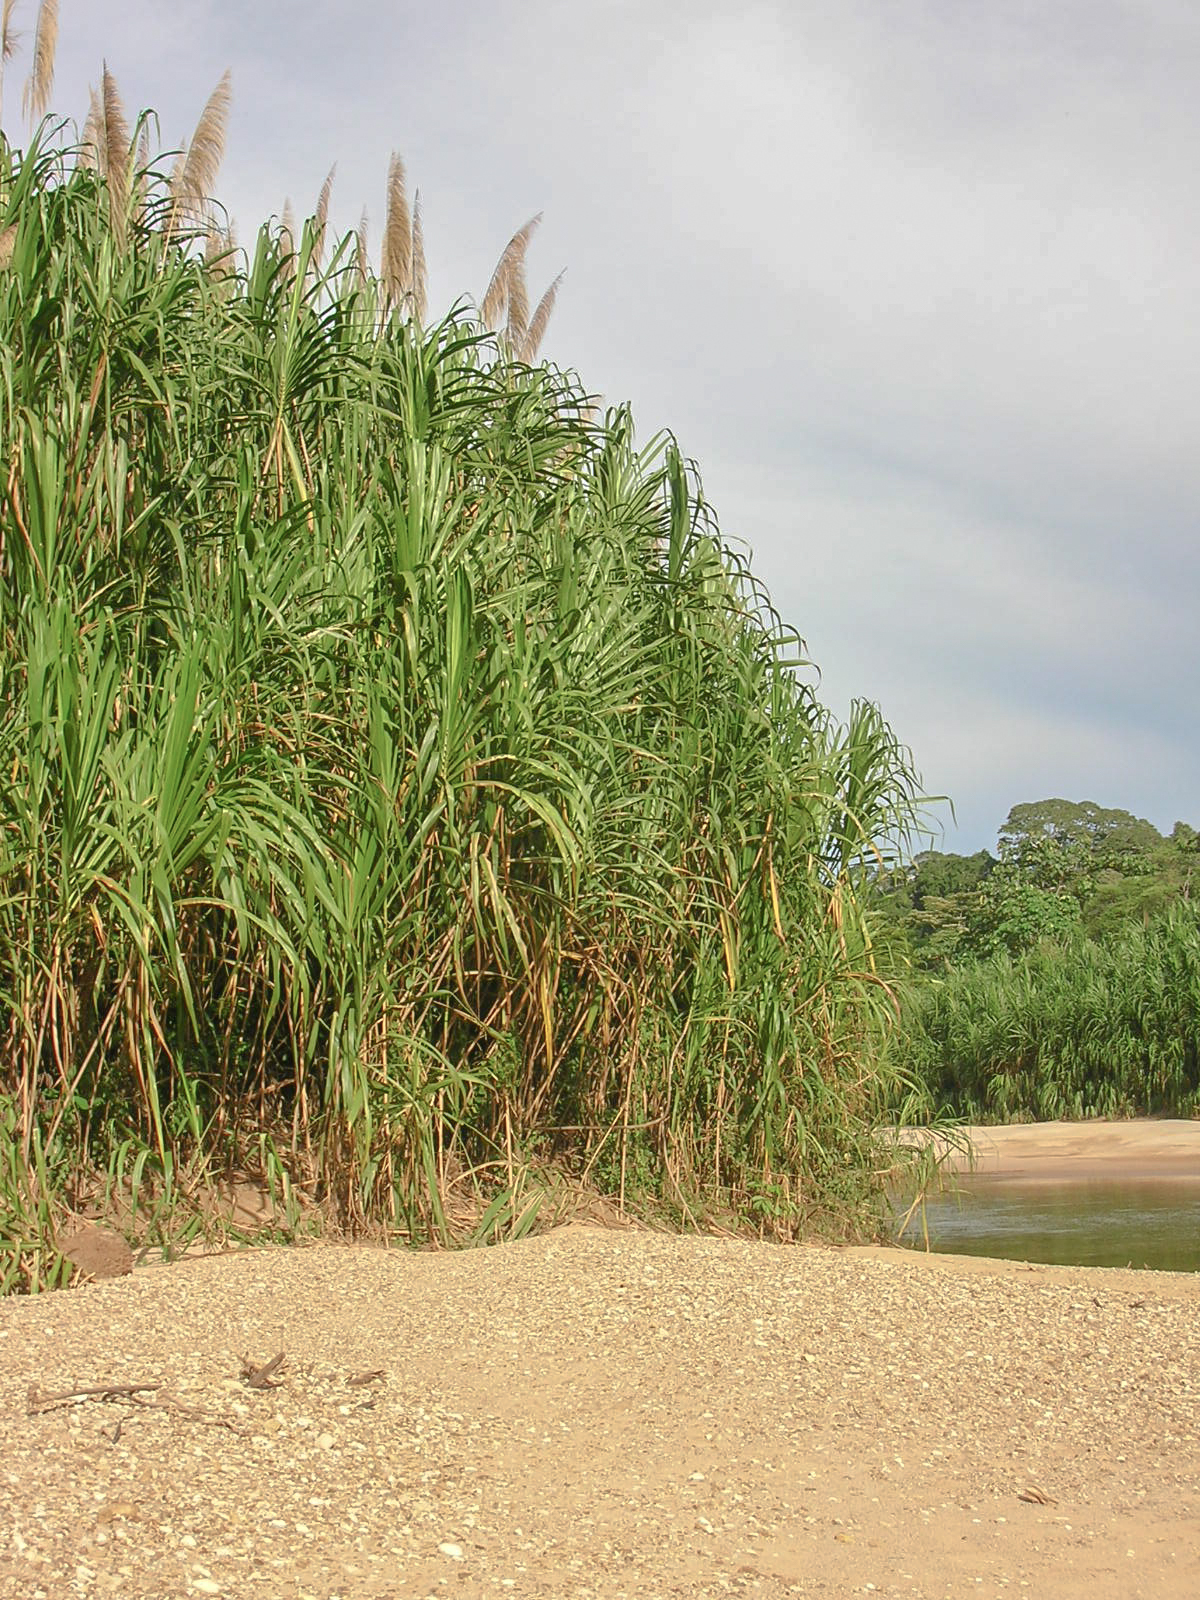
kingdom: Plantae
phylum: Tracheophyta
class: Liliopsida
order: Poales
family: Poaceae
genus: Gynerium
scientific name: Gynerium sagittatum
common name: Wild cane
